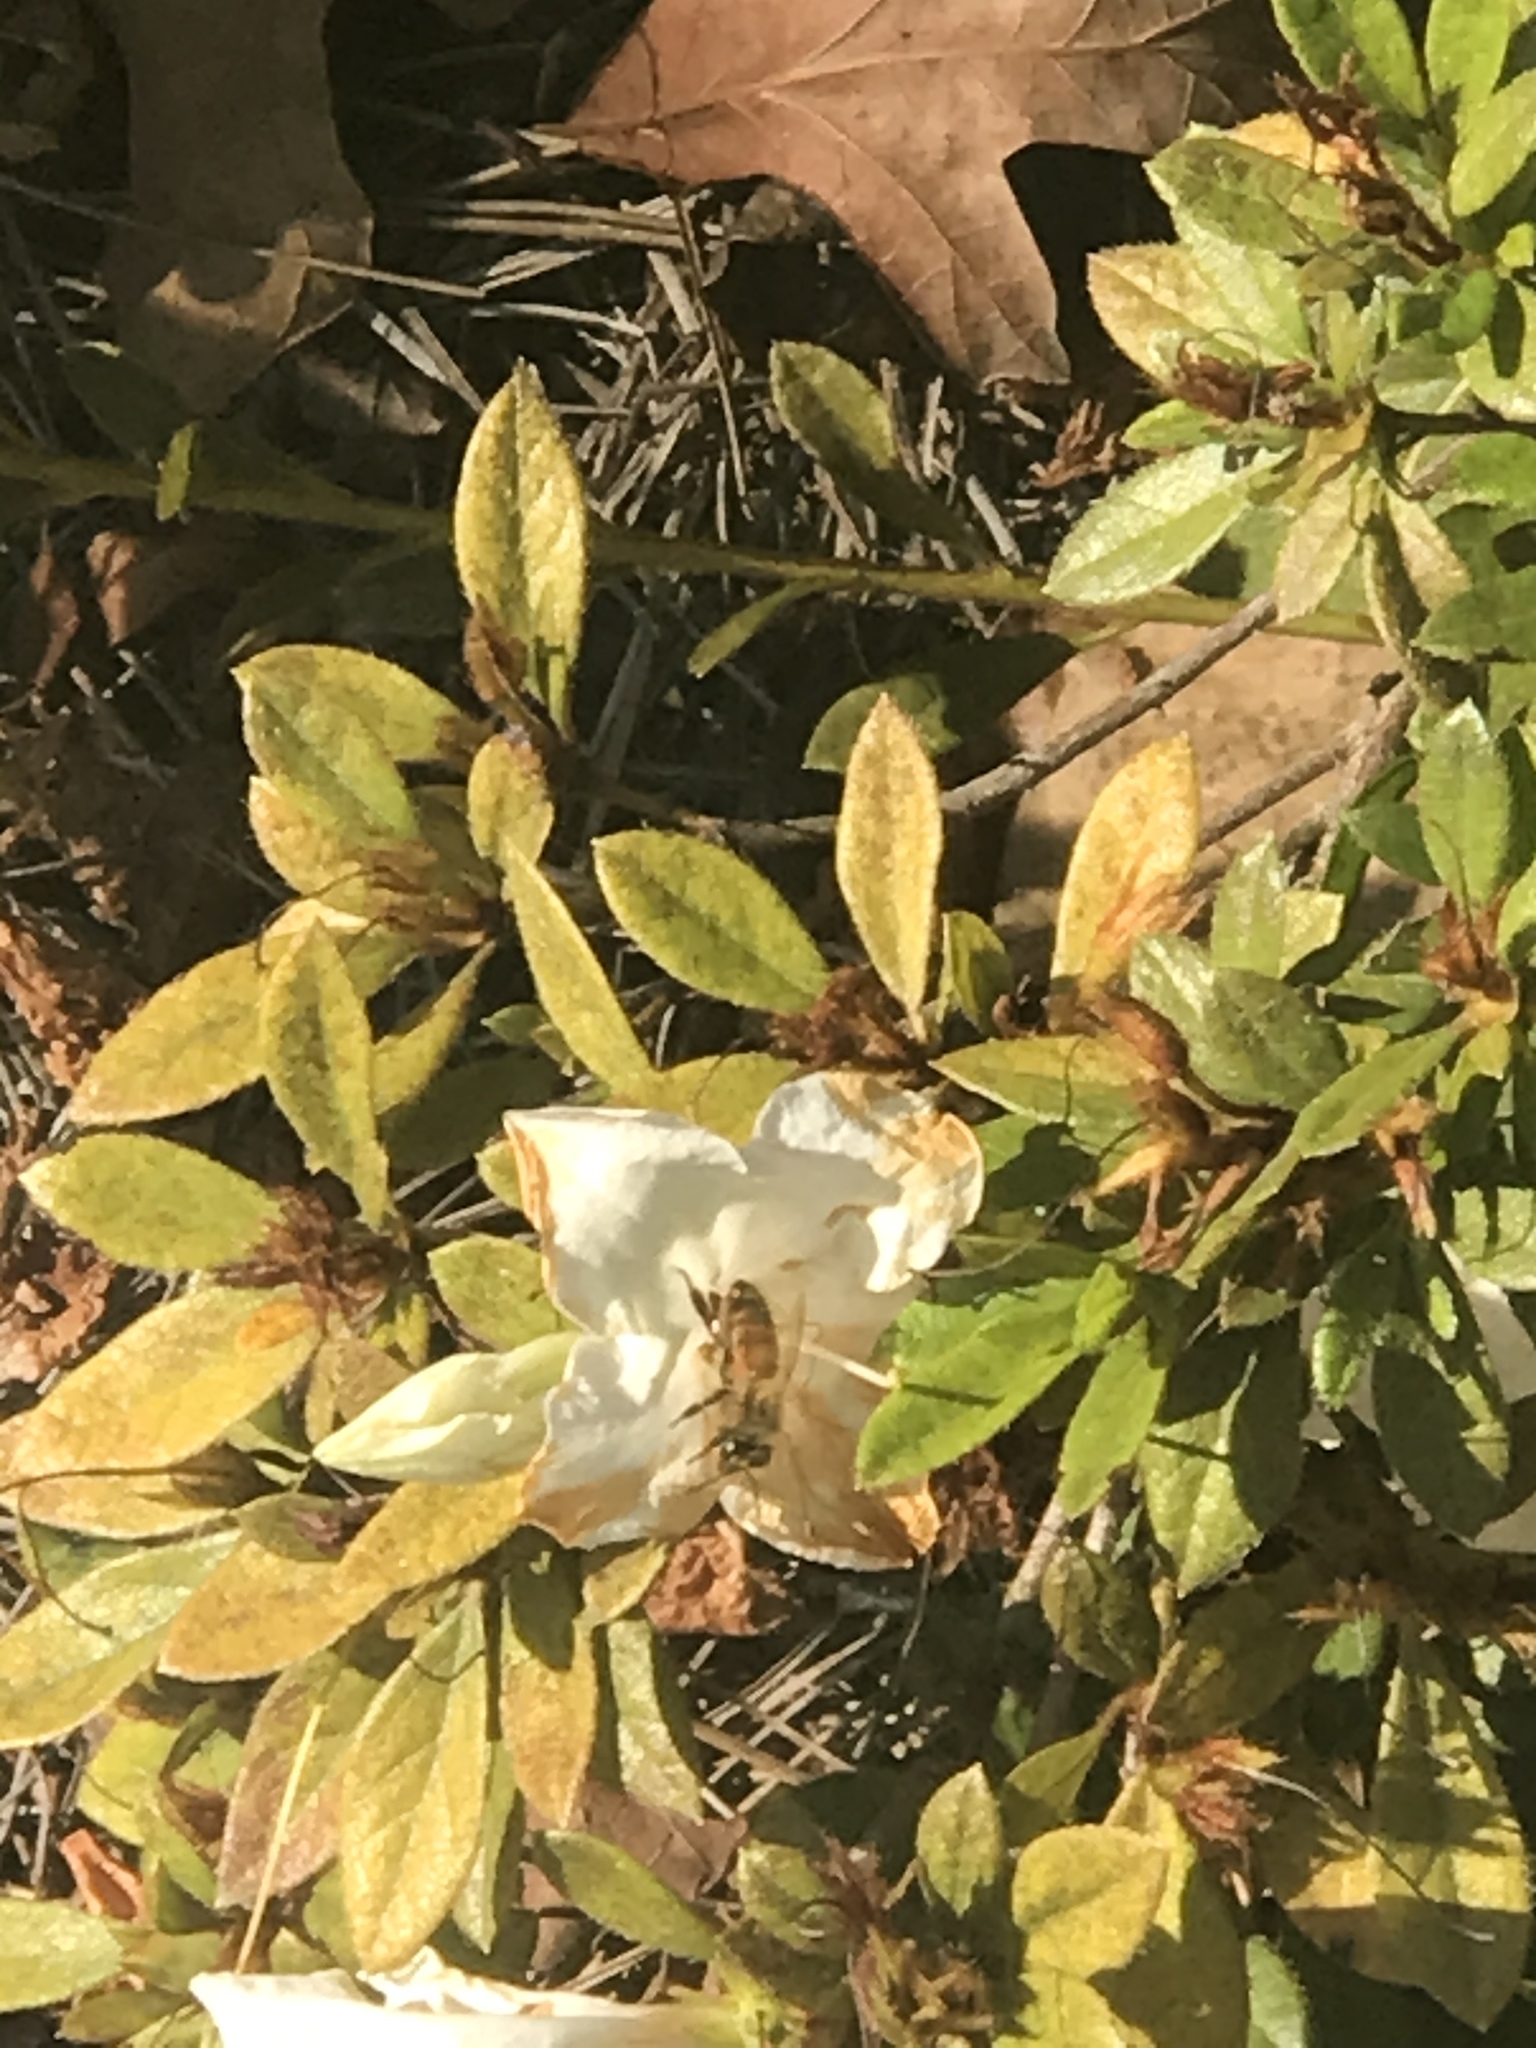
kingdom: Animalia
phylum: Arthropoda
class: Insecta
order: Hymenoptera
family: Apidae
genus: Apis
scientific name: Apis mellifera
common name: Honey bee
